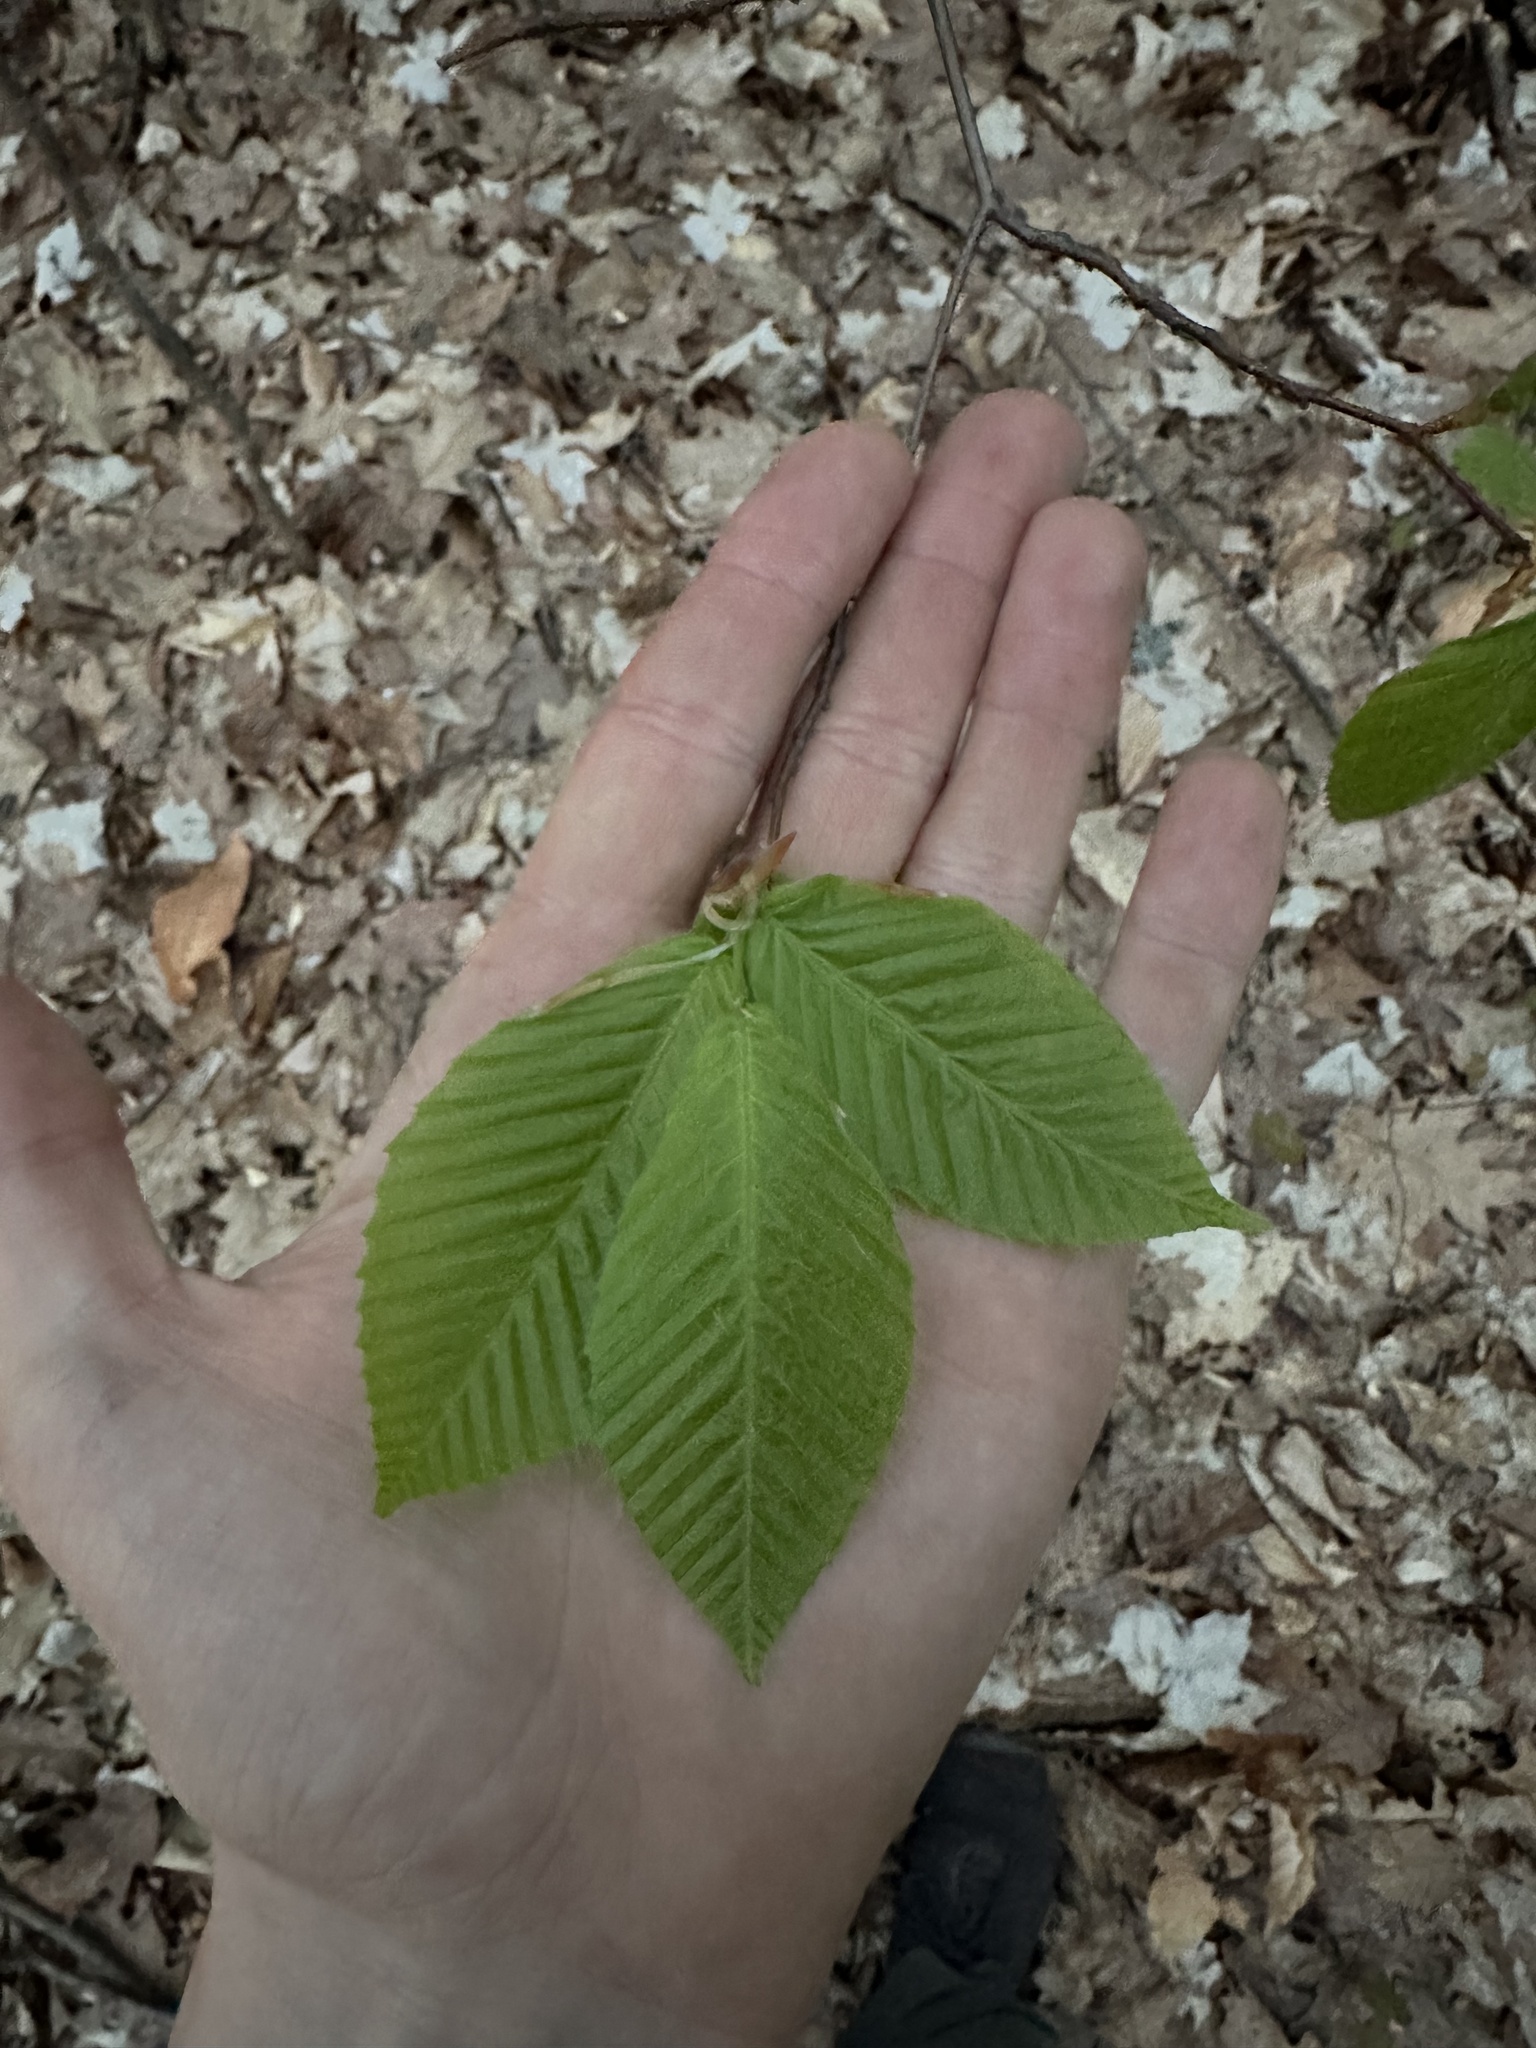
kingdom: Plantae
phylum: Tracheophyta
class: Magnoliopsida
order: Fagales
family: Fagaceae
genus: Fagus
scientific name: Fagus grandifolia
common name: American beech
